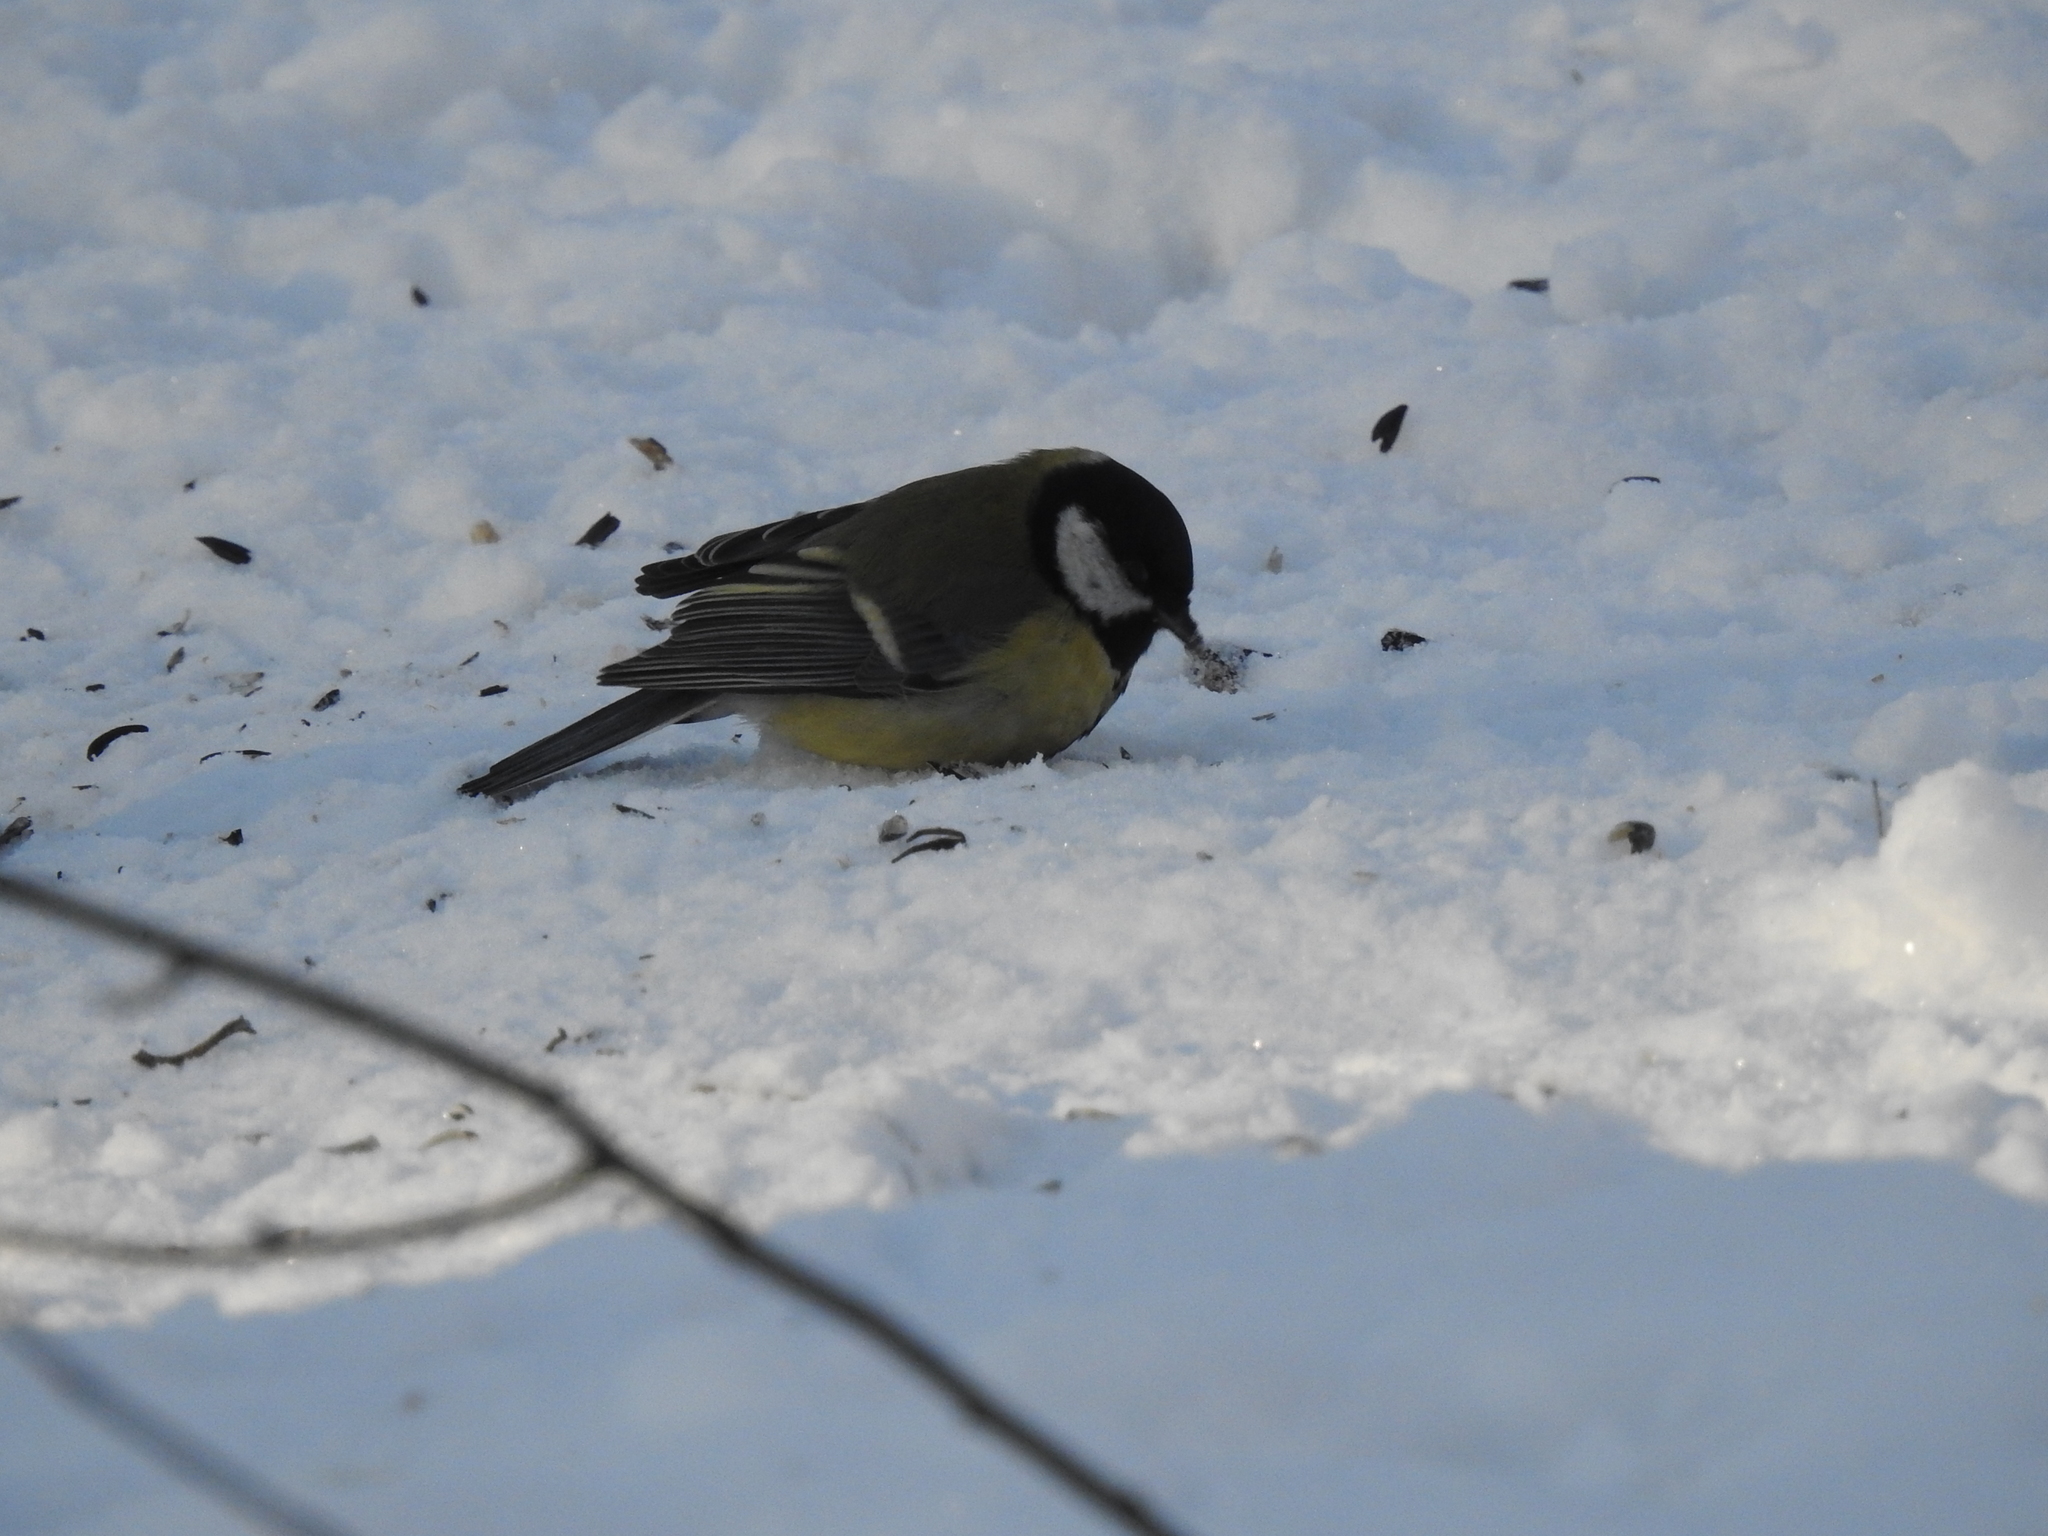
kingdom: Animalia
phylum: Chordata
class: Aves
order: Passeriformes
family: Paridae
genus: Parus
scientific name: Parus major
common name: Great tit
